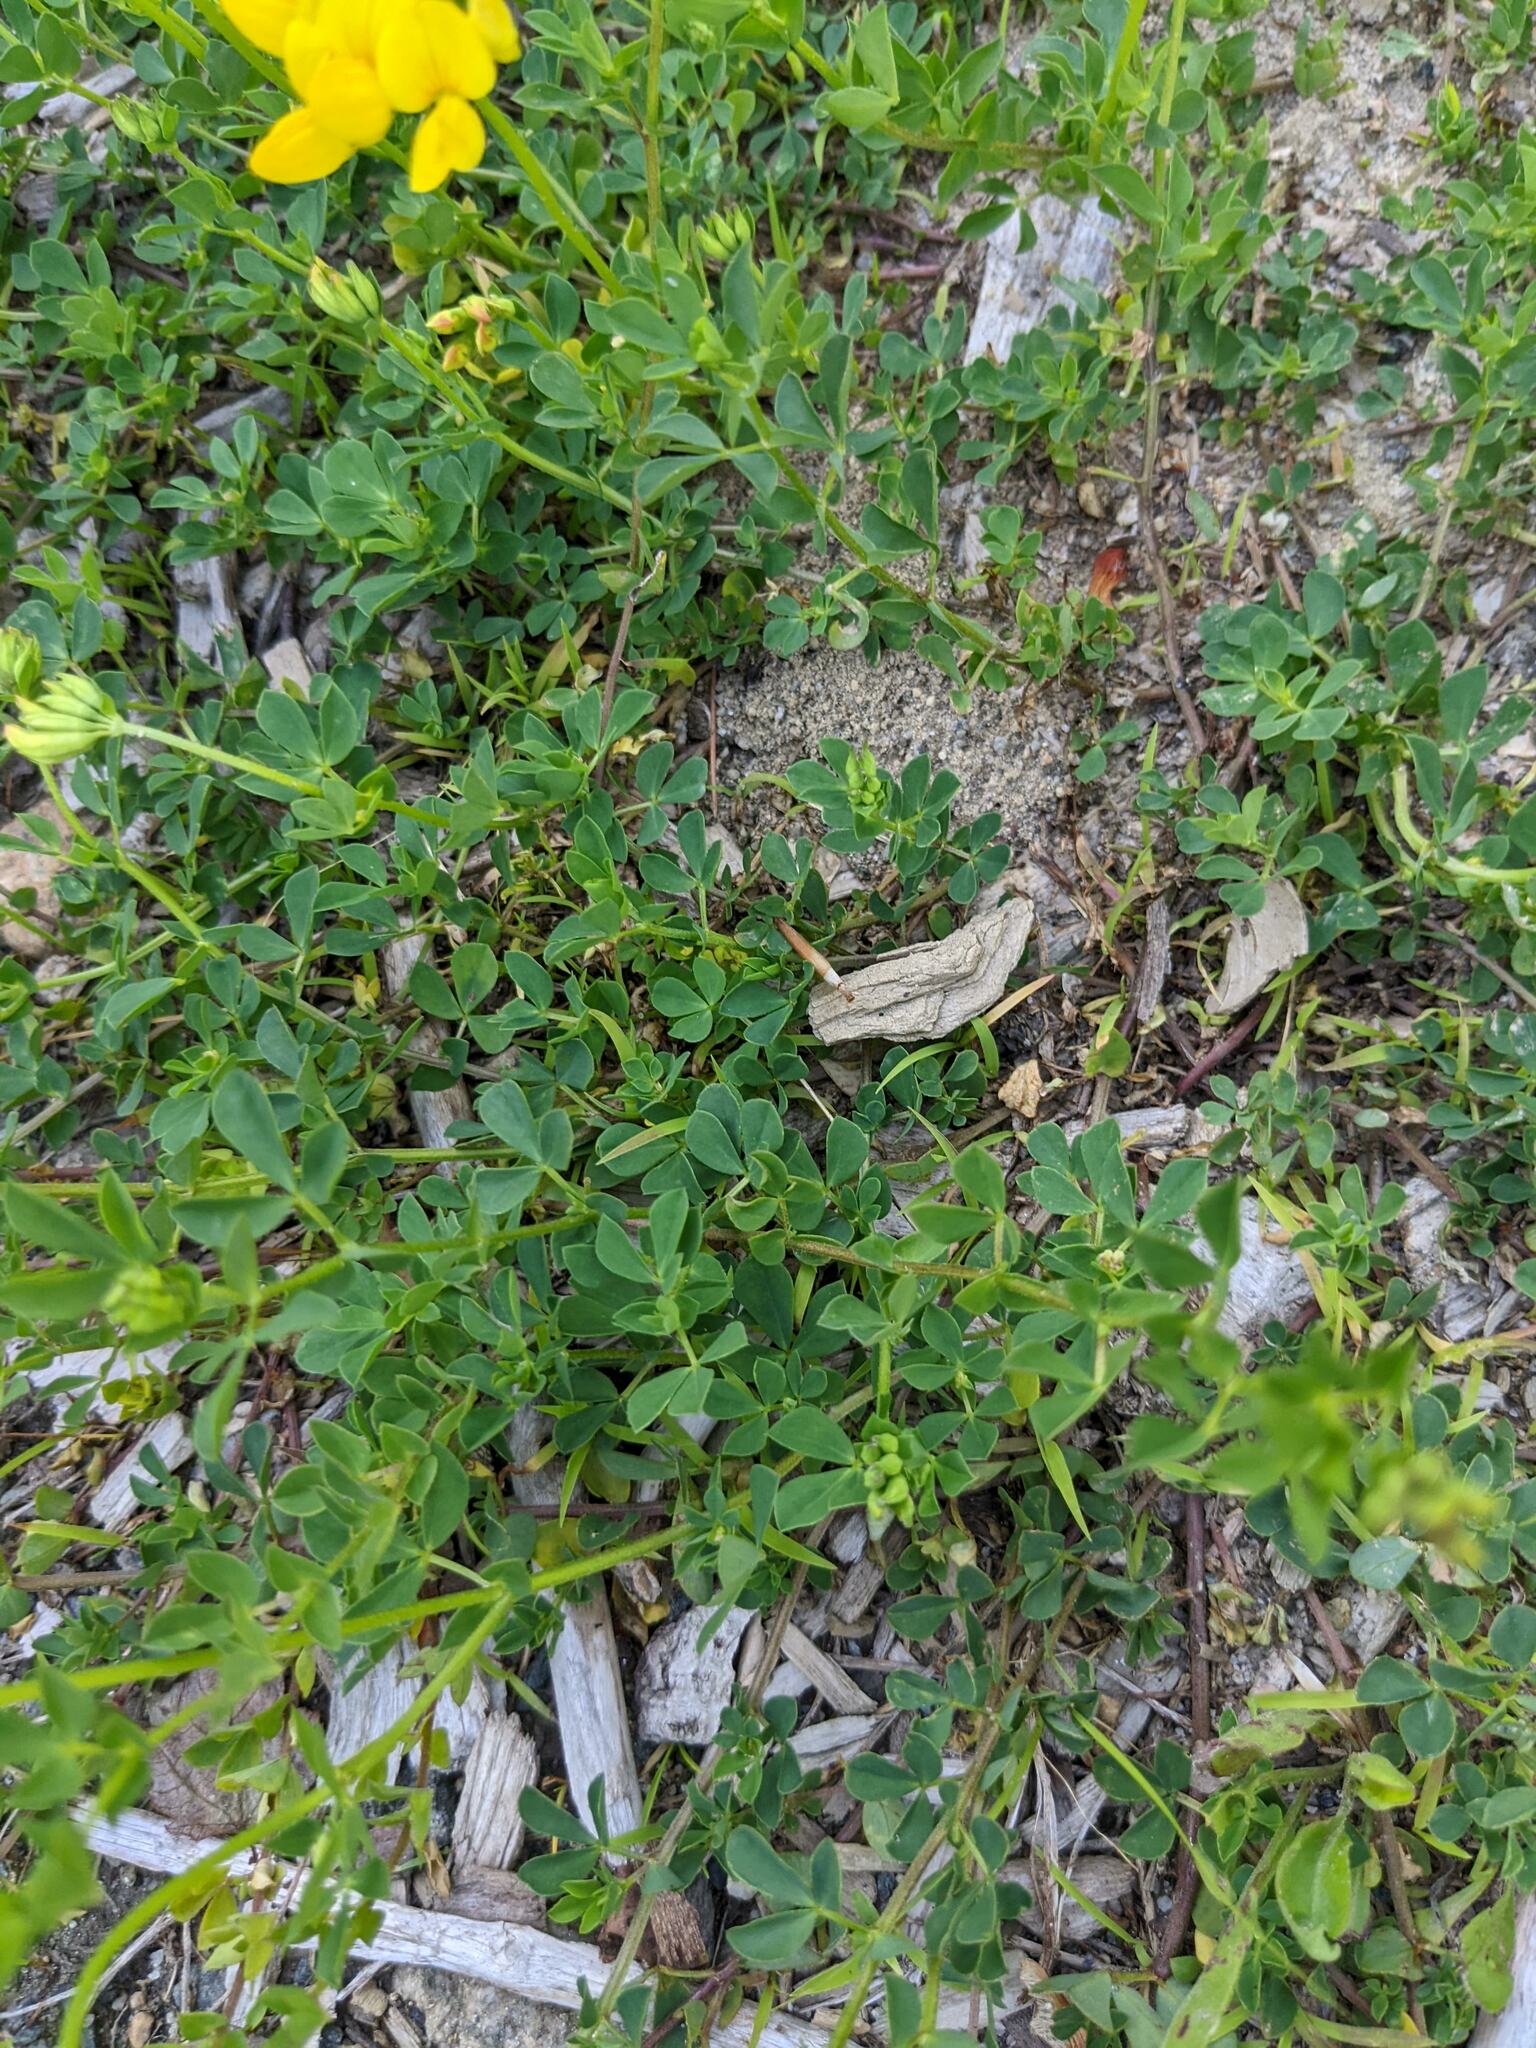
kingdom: Plantae
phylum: Tracheophyta
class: Magnoliopsida
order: Fabales
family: Fabaceae
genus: Lotus
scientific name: Lotus corniculatus
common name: Common bird's-foot-trefoil
